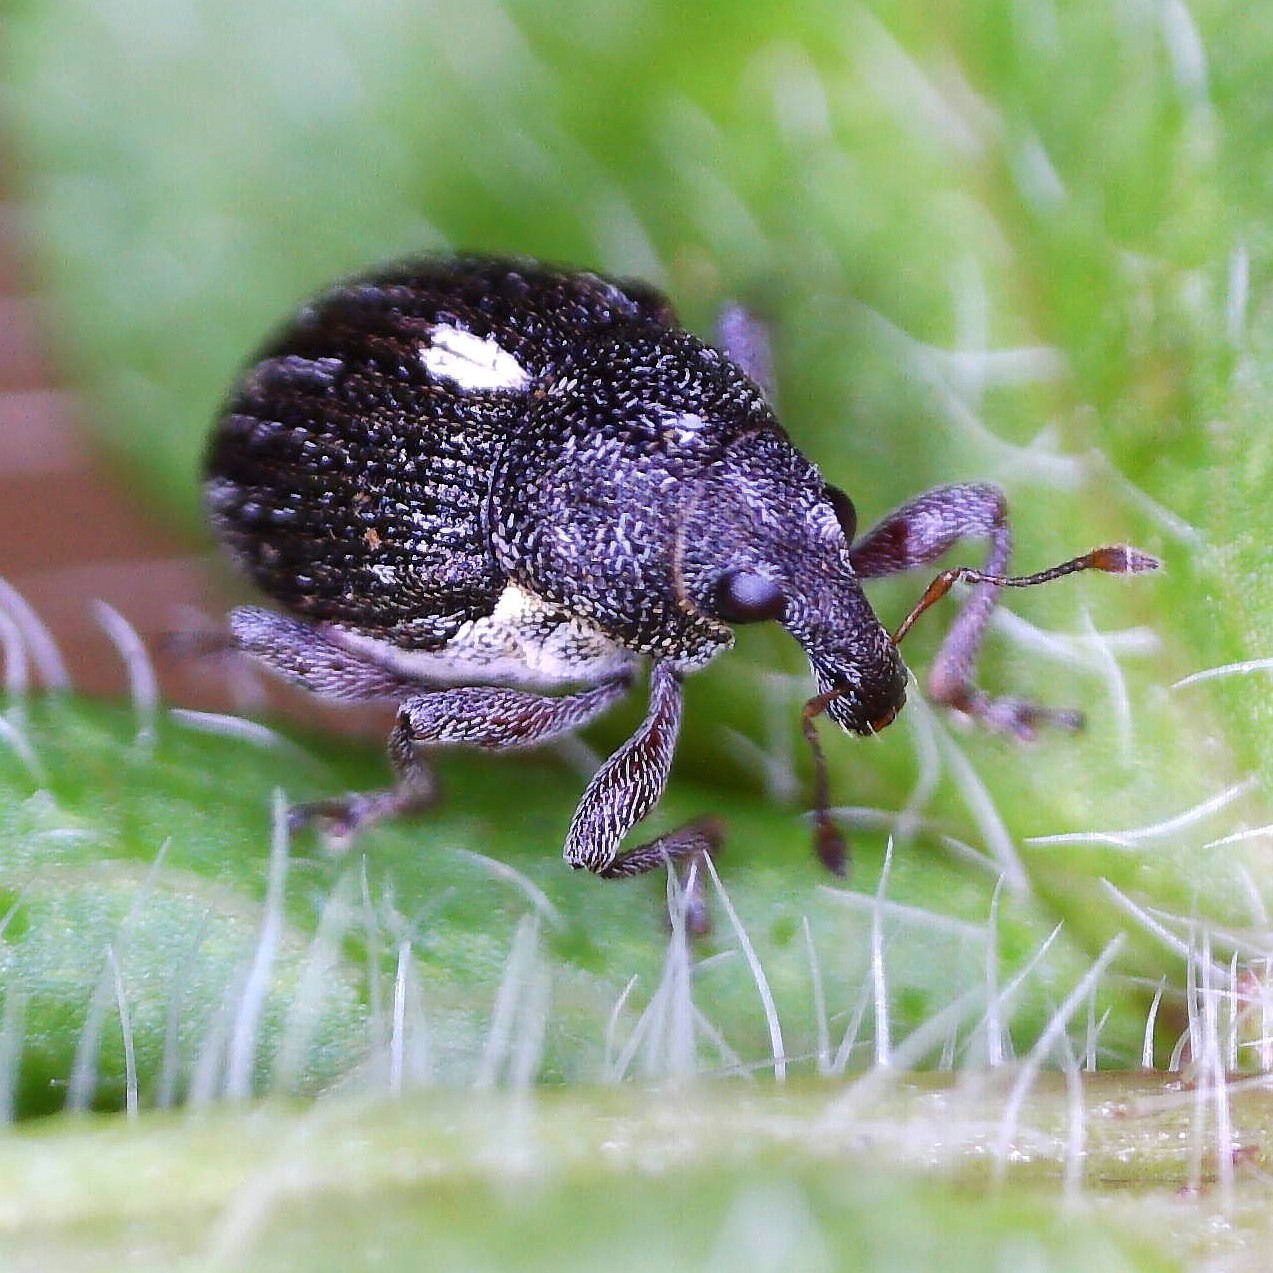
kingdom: Animalia
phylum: Arthropoda
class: Insecta
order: Coleoptera
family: Curculionidae
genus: Rhinoncus
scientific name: Rhinoncus leucostigma
